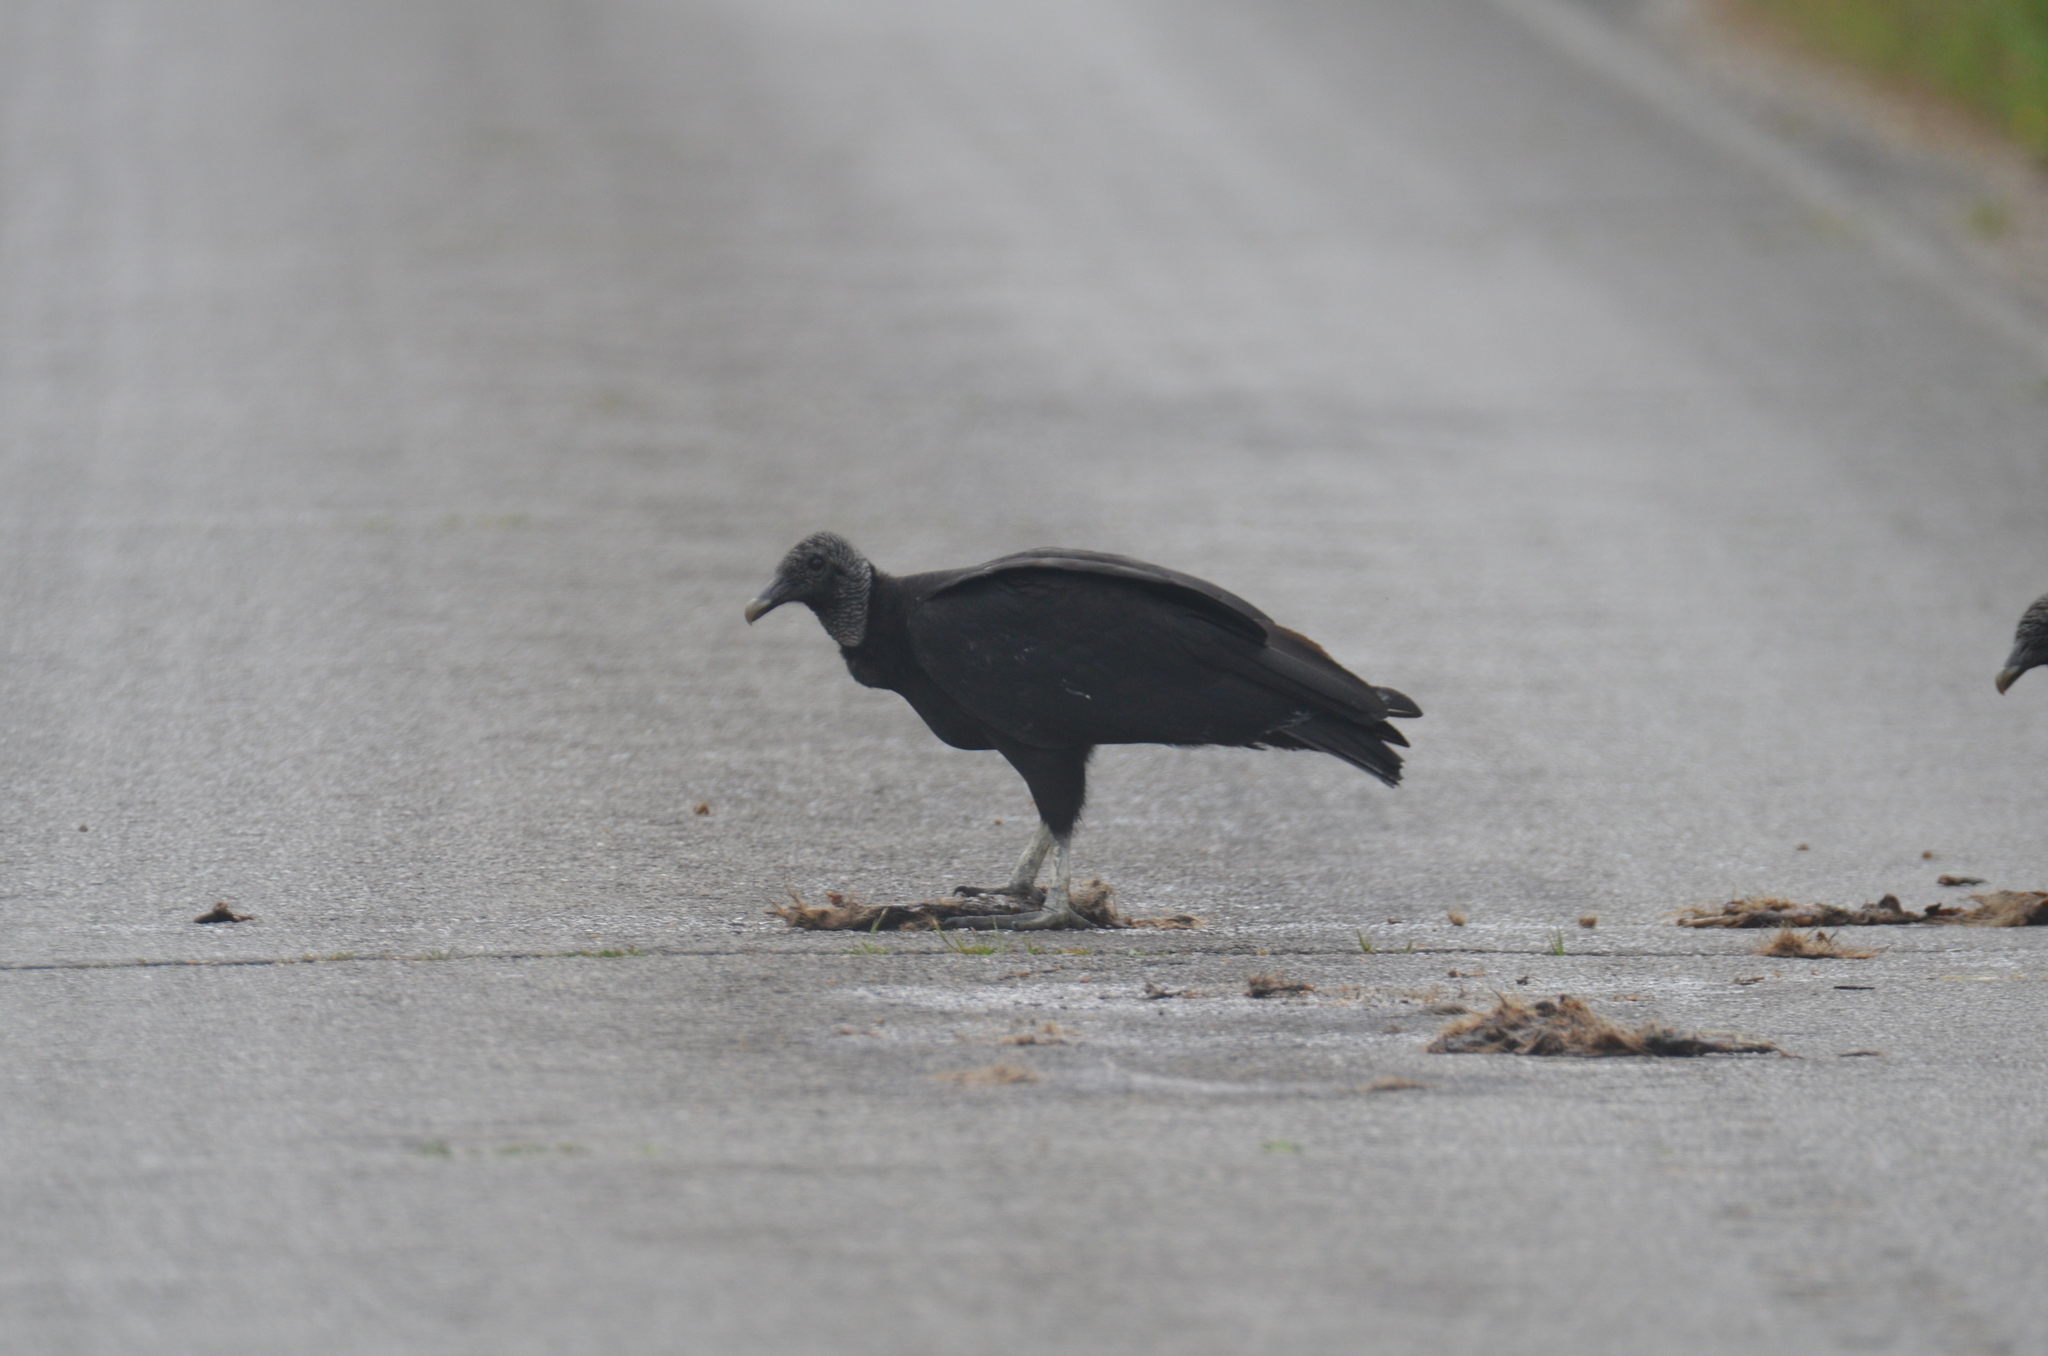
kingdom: Animalia
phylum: Chordata
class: Aves
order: Accipitriformes
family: Cathartidae
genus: Coragyps
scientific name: Coragyps atratus
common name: Black vulture
